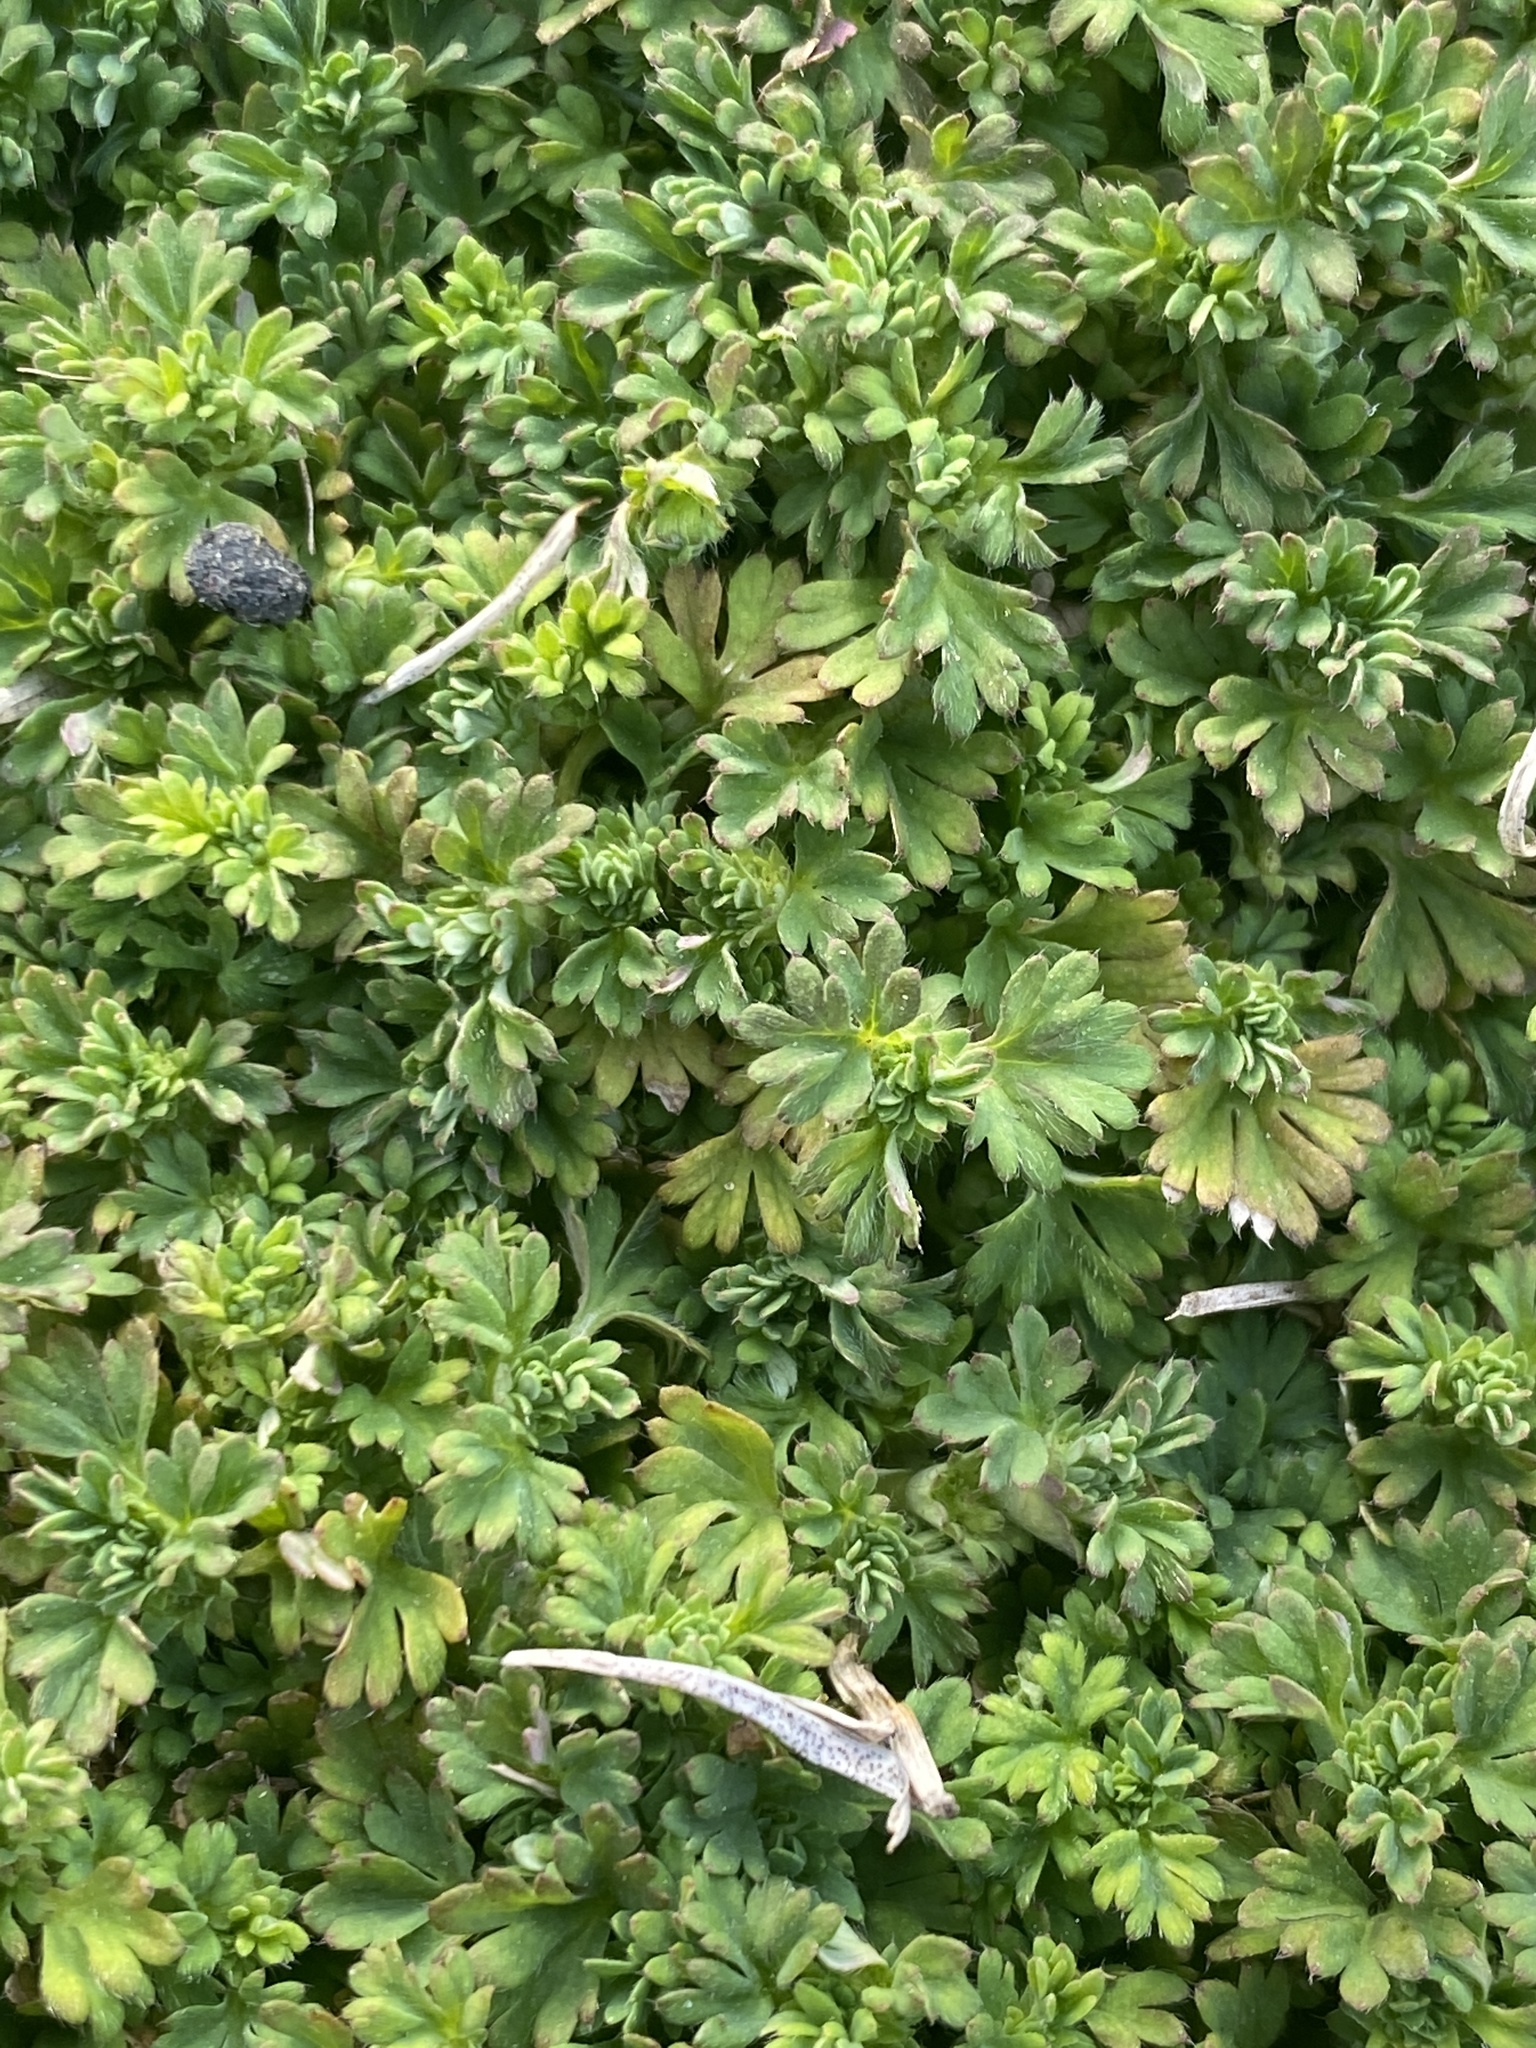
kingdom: Plantae
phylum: Tracheophyta
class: Magnoliopsida
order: Rosales
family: Rosaceae
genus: Aphanes
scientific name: Aphanes australis
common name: Slender parsley-piert
